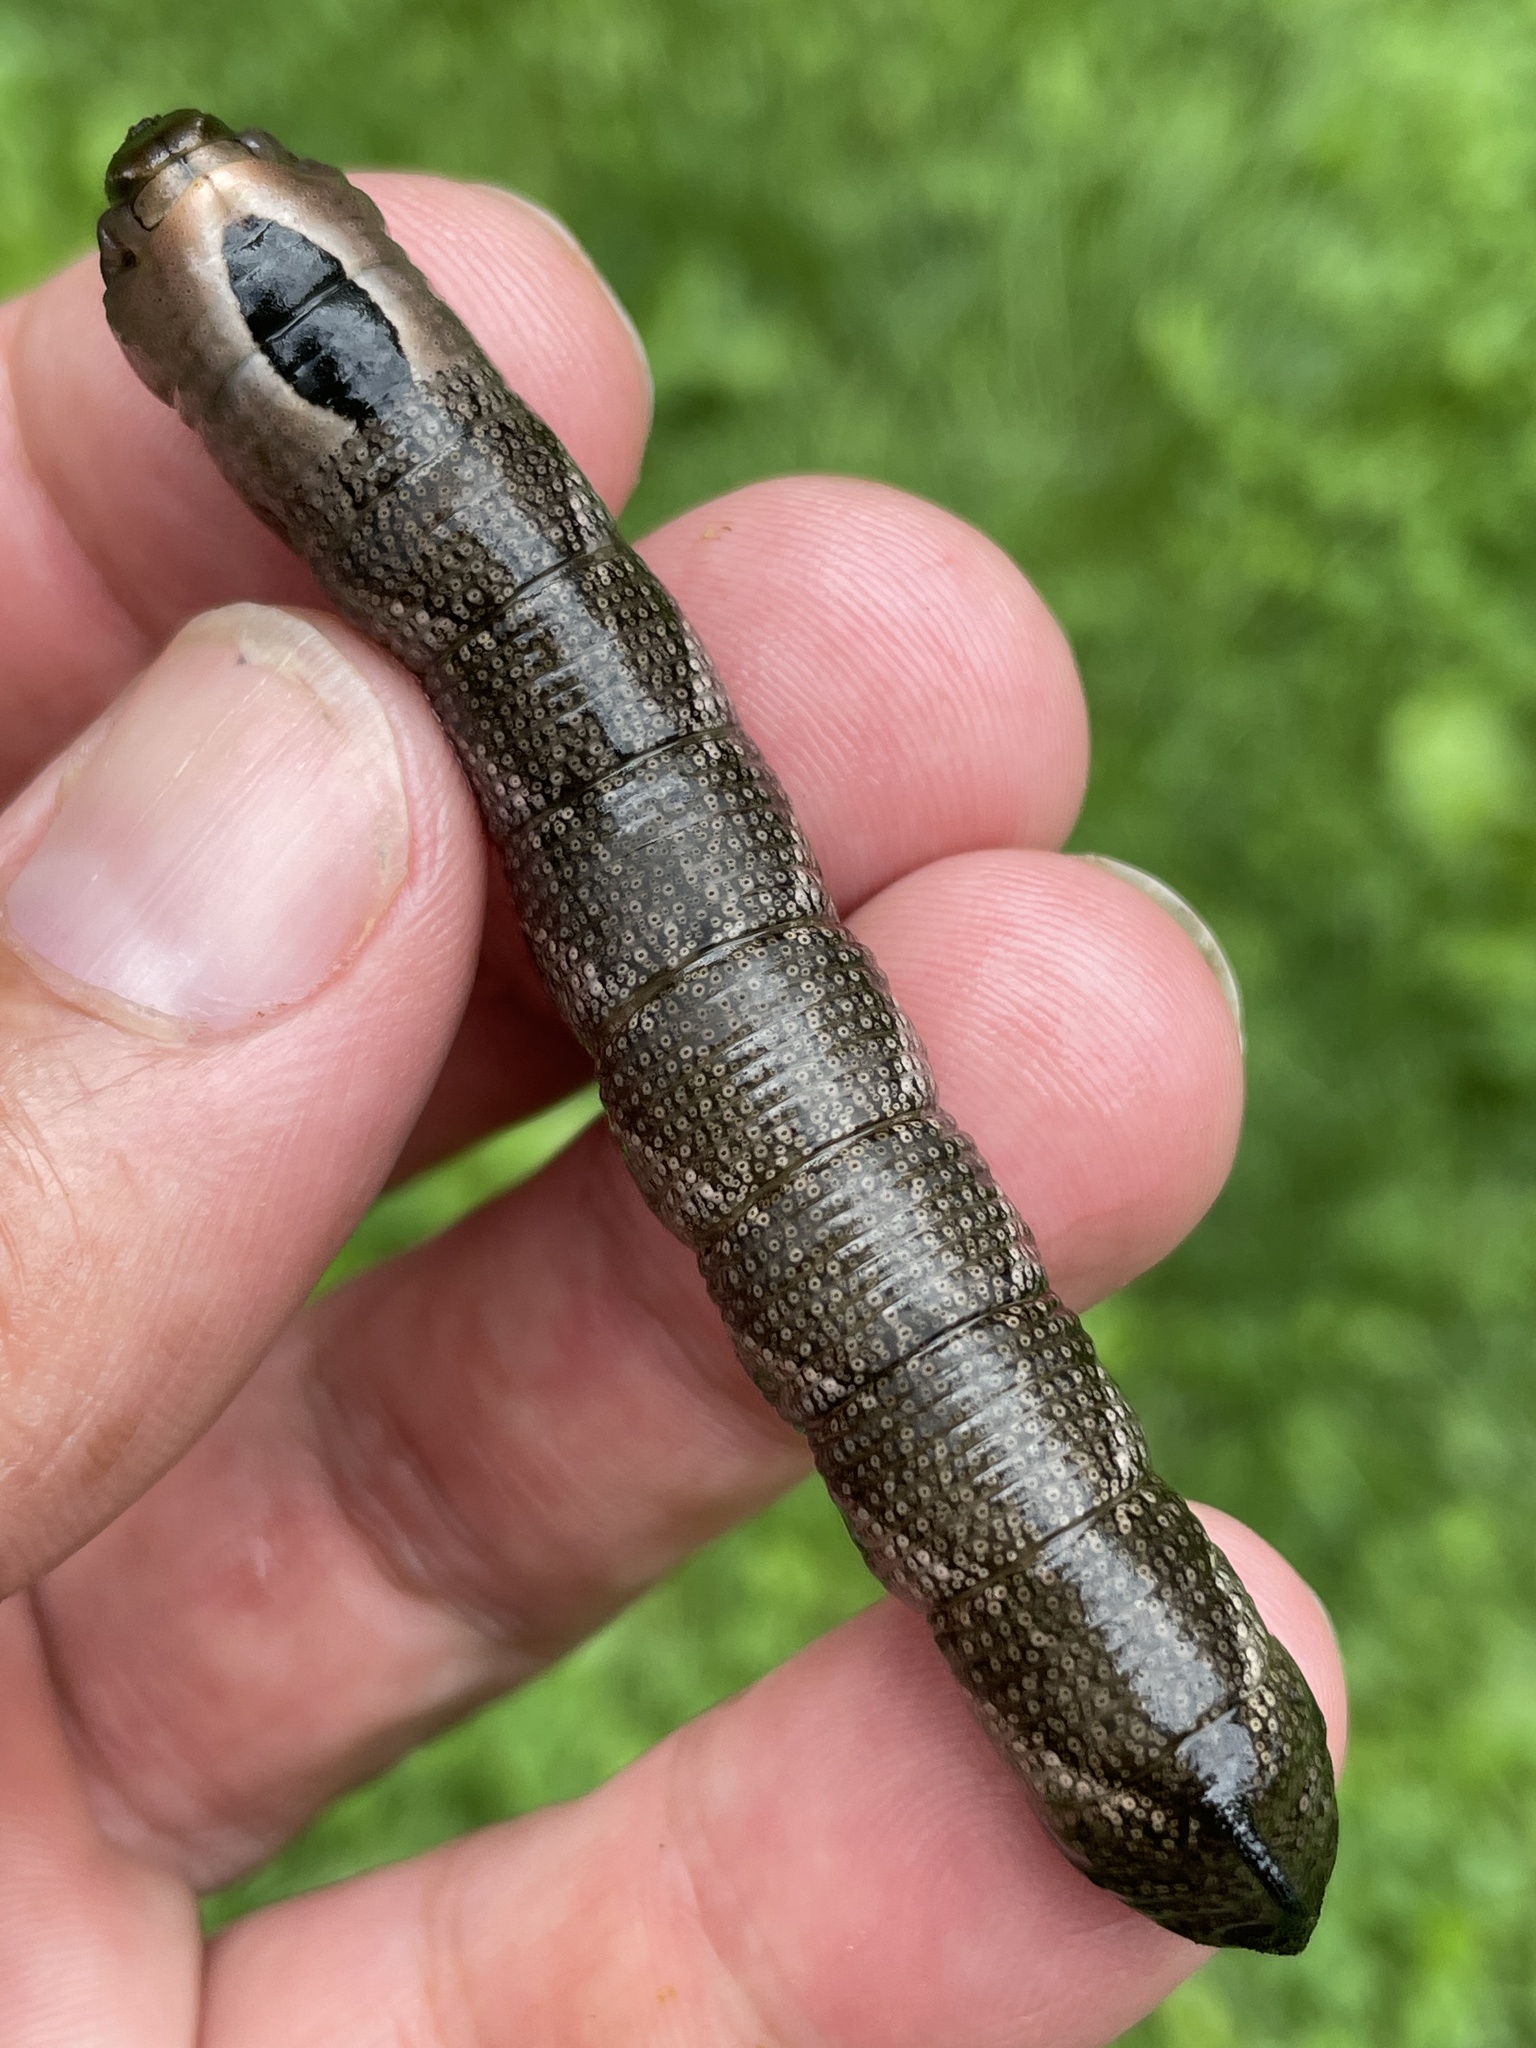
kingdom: Animalia
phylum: Arthropoda
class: Insecta
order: Lepidoptera
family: Sphingidae
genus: Lintneria
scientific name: Lintneria eremitus
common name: Hermit sphinx
